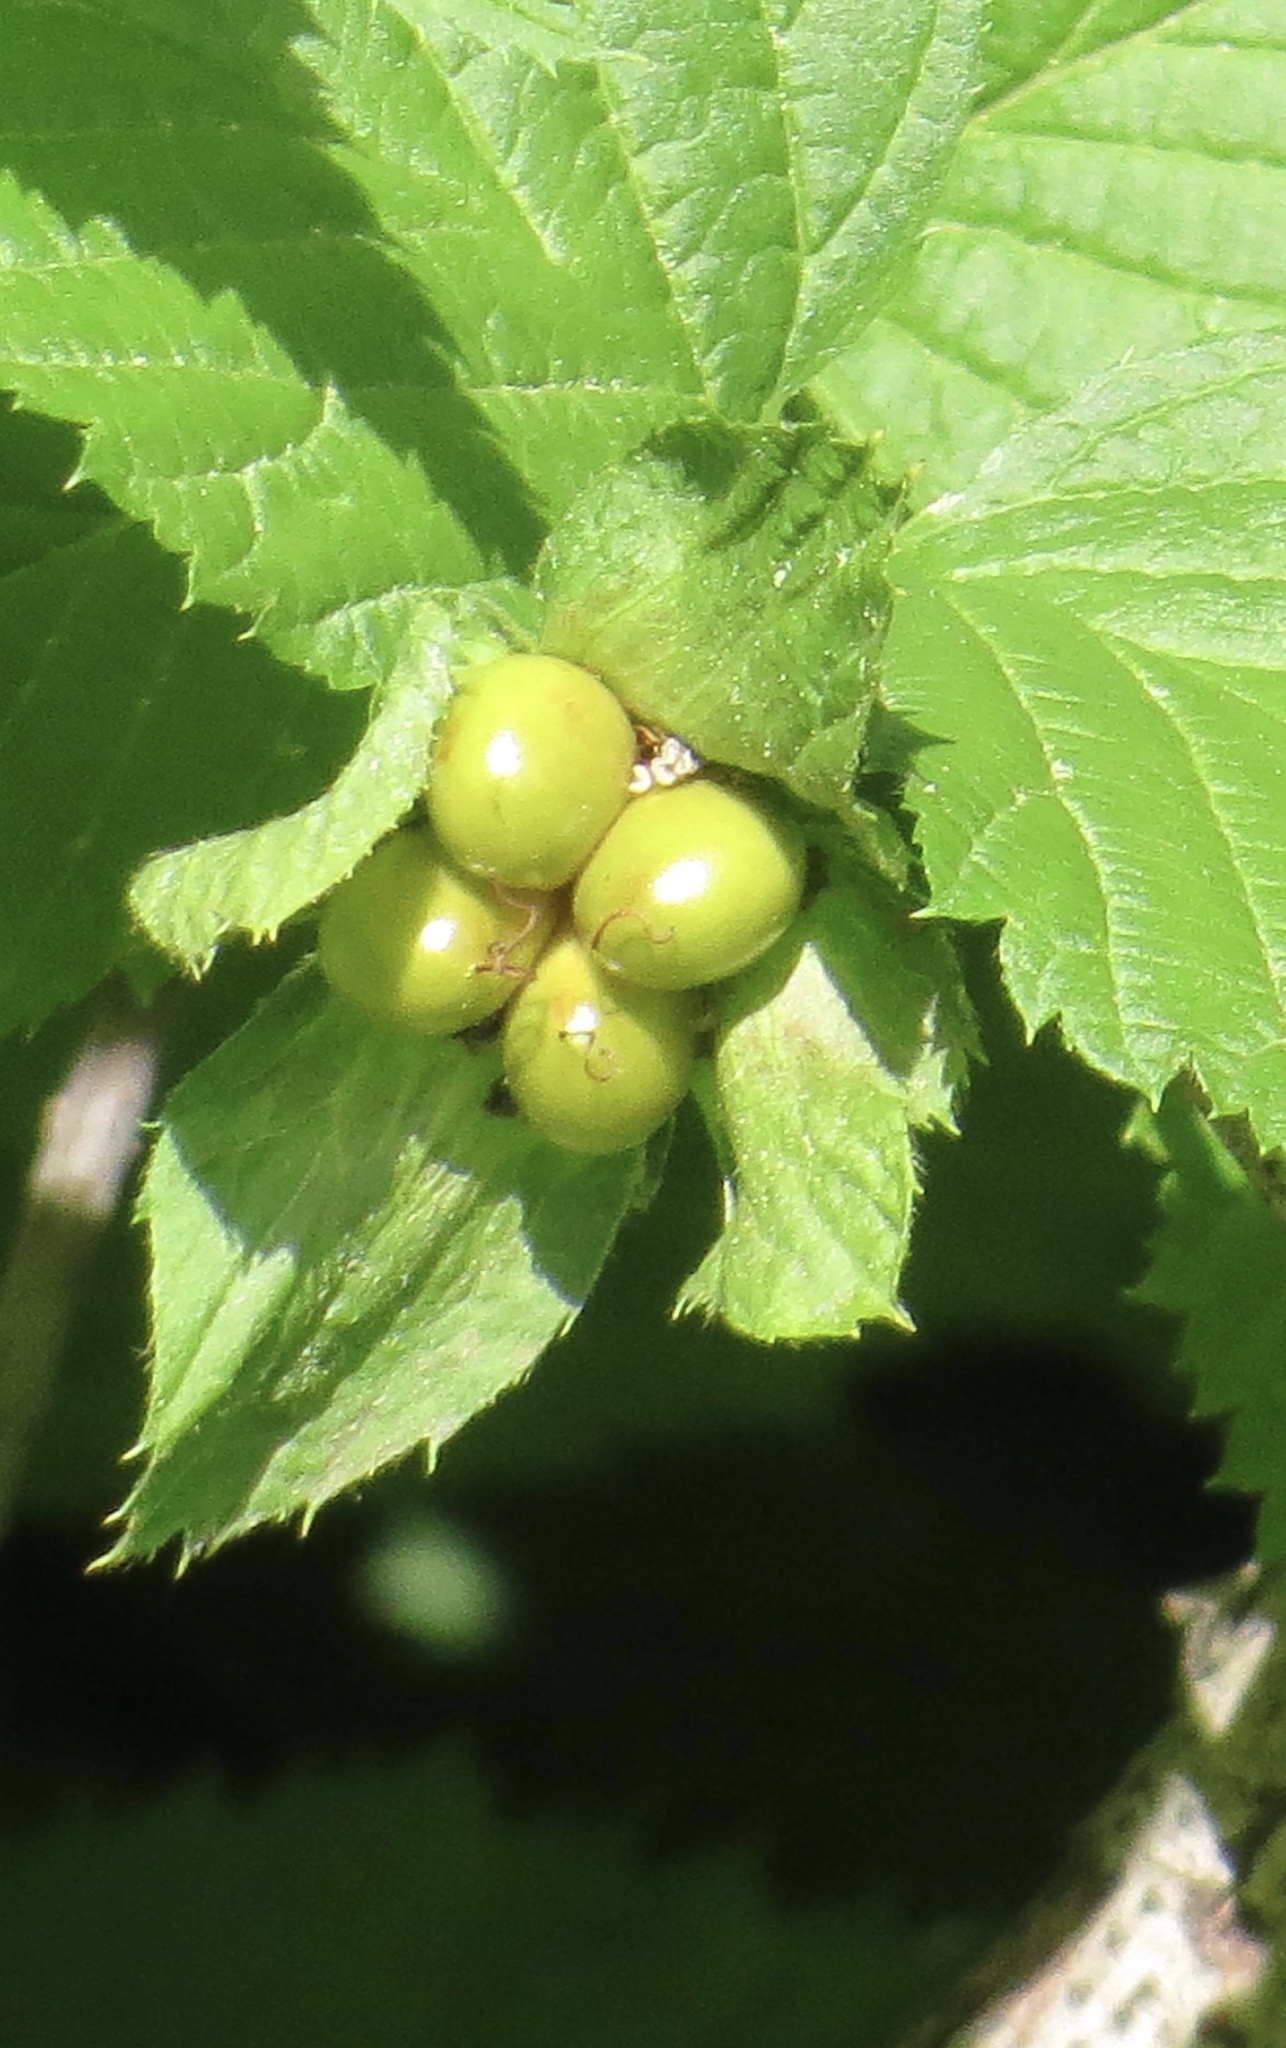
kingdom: Plantae
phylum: Tracheophyta
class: Magnoliopsida
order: Rosales
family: Rosaceae
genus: Rhodotypos
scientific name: Rhodotypos scandens
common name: Jetbead
